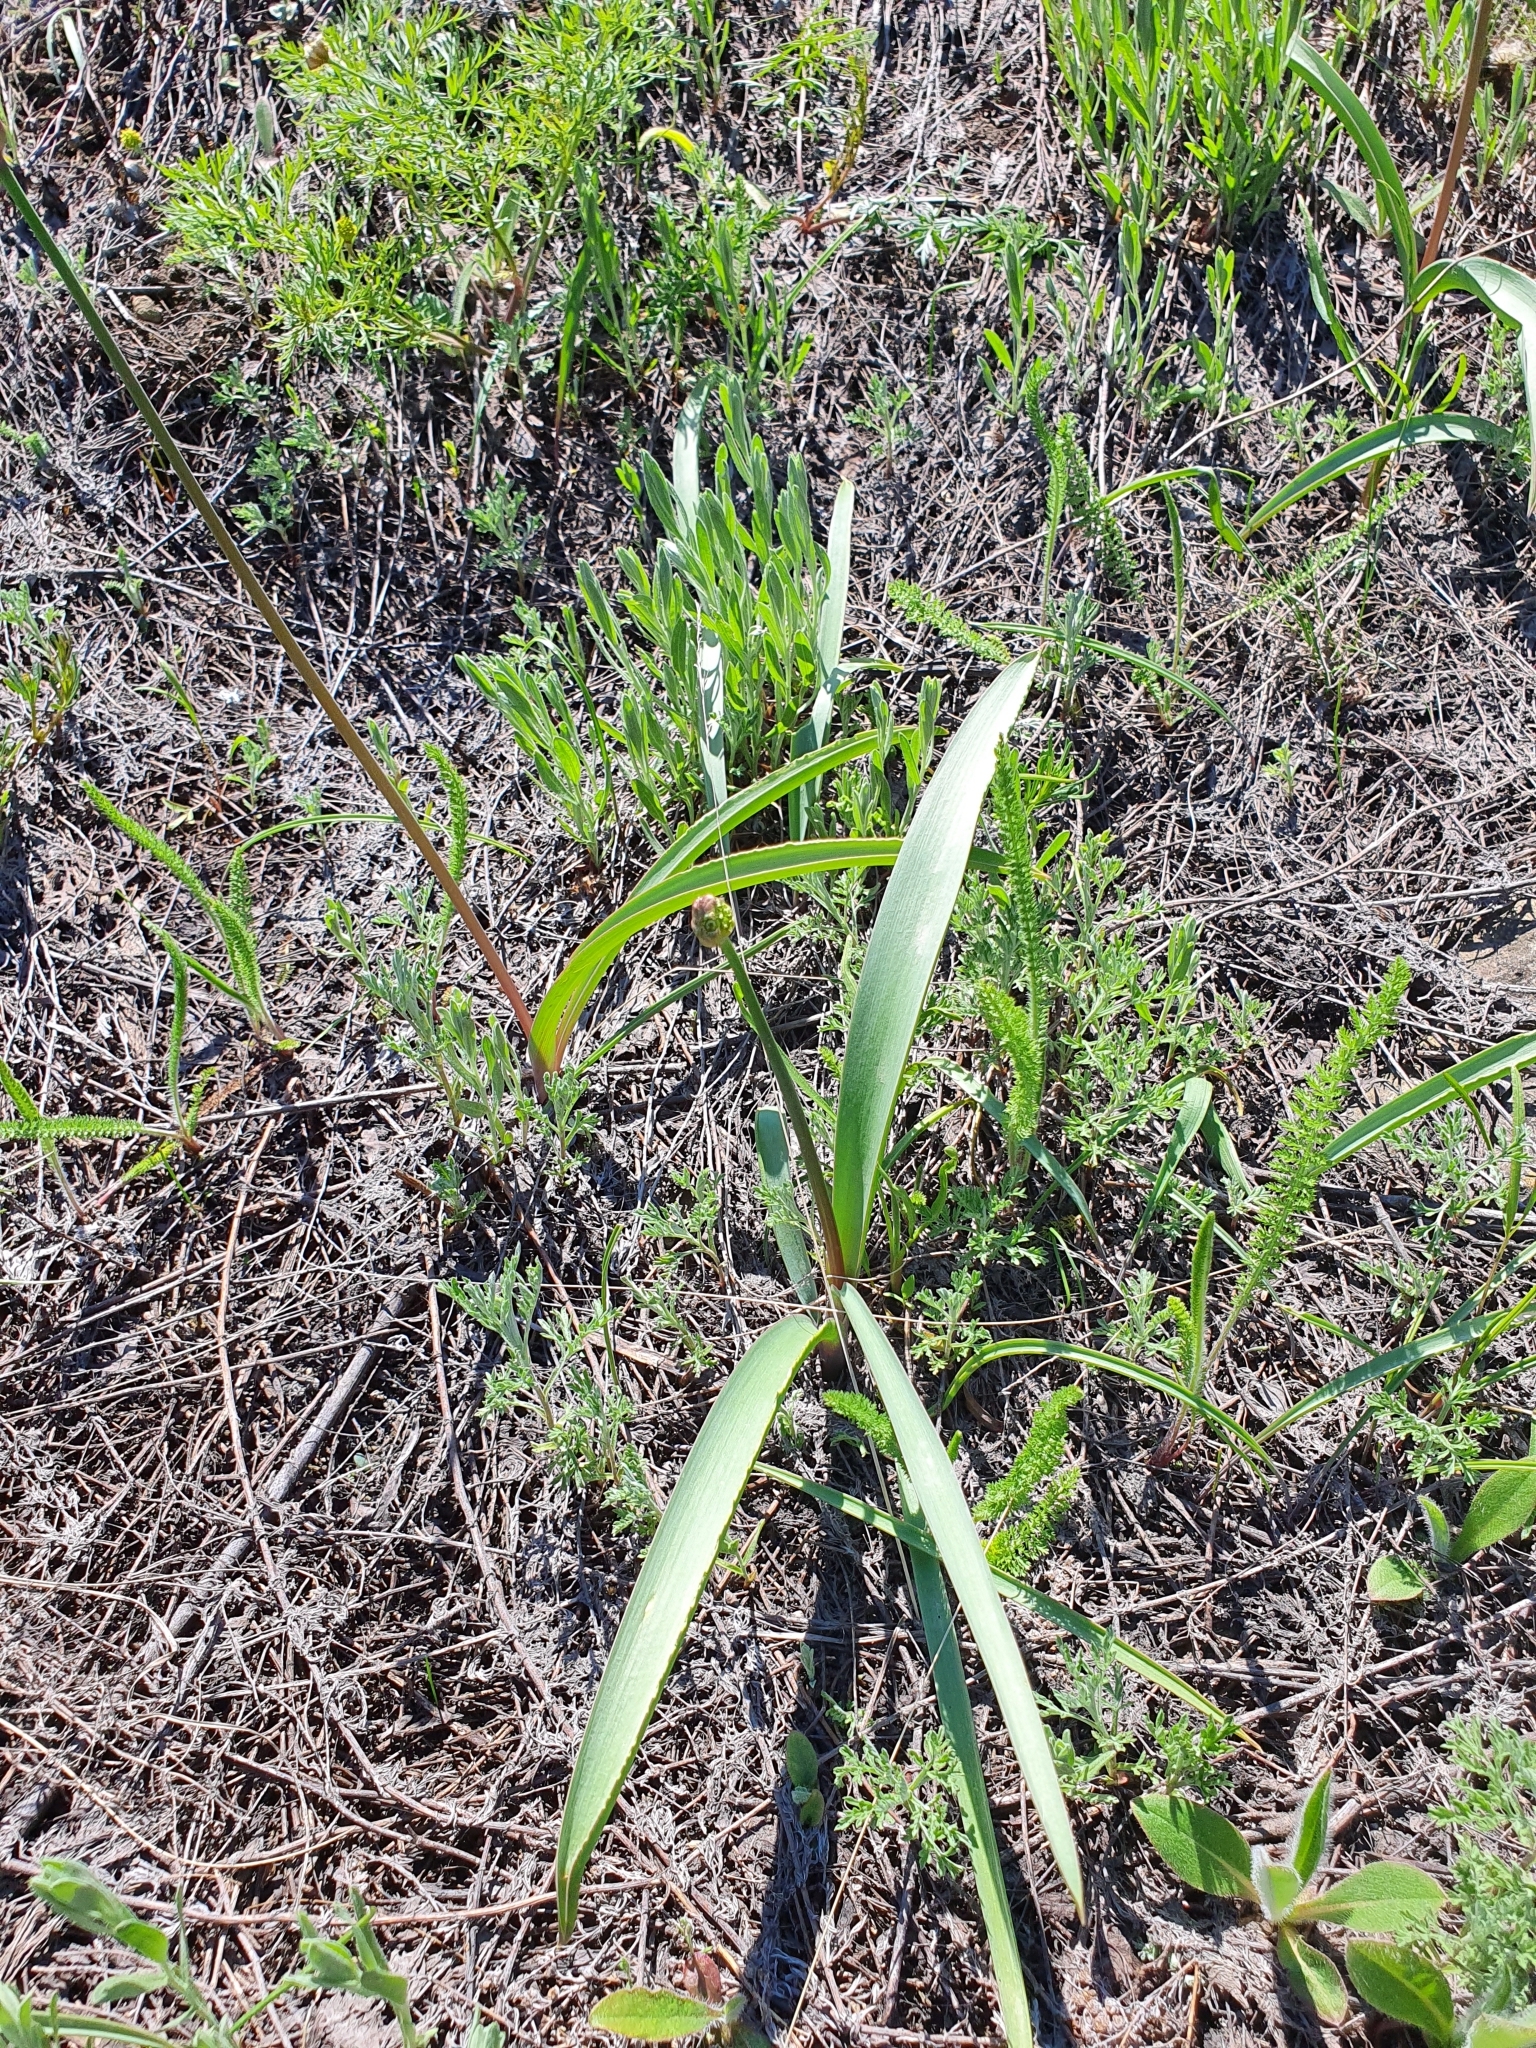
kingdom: Plantae
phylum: Tracheophyta
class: Liliopsida
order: Asparagales
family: Amaryllidaceae
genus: Allium
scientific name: Allium tulipifolium
